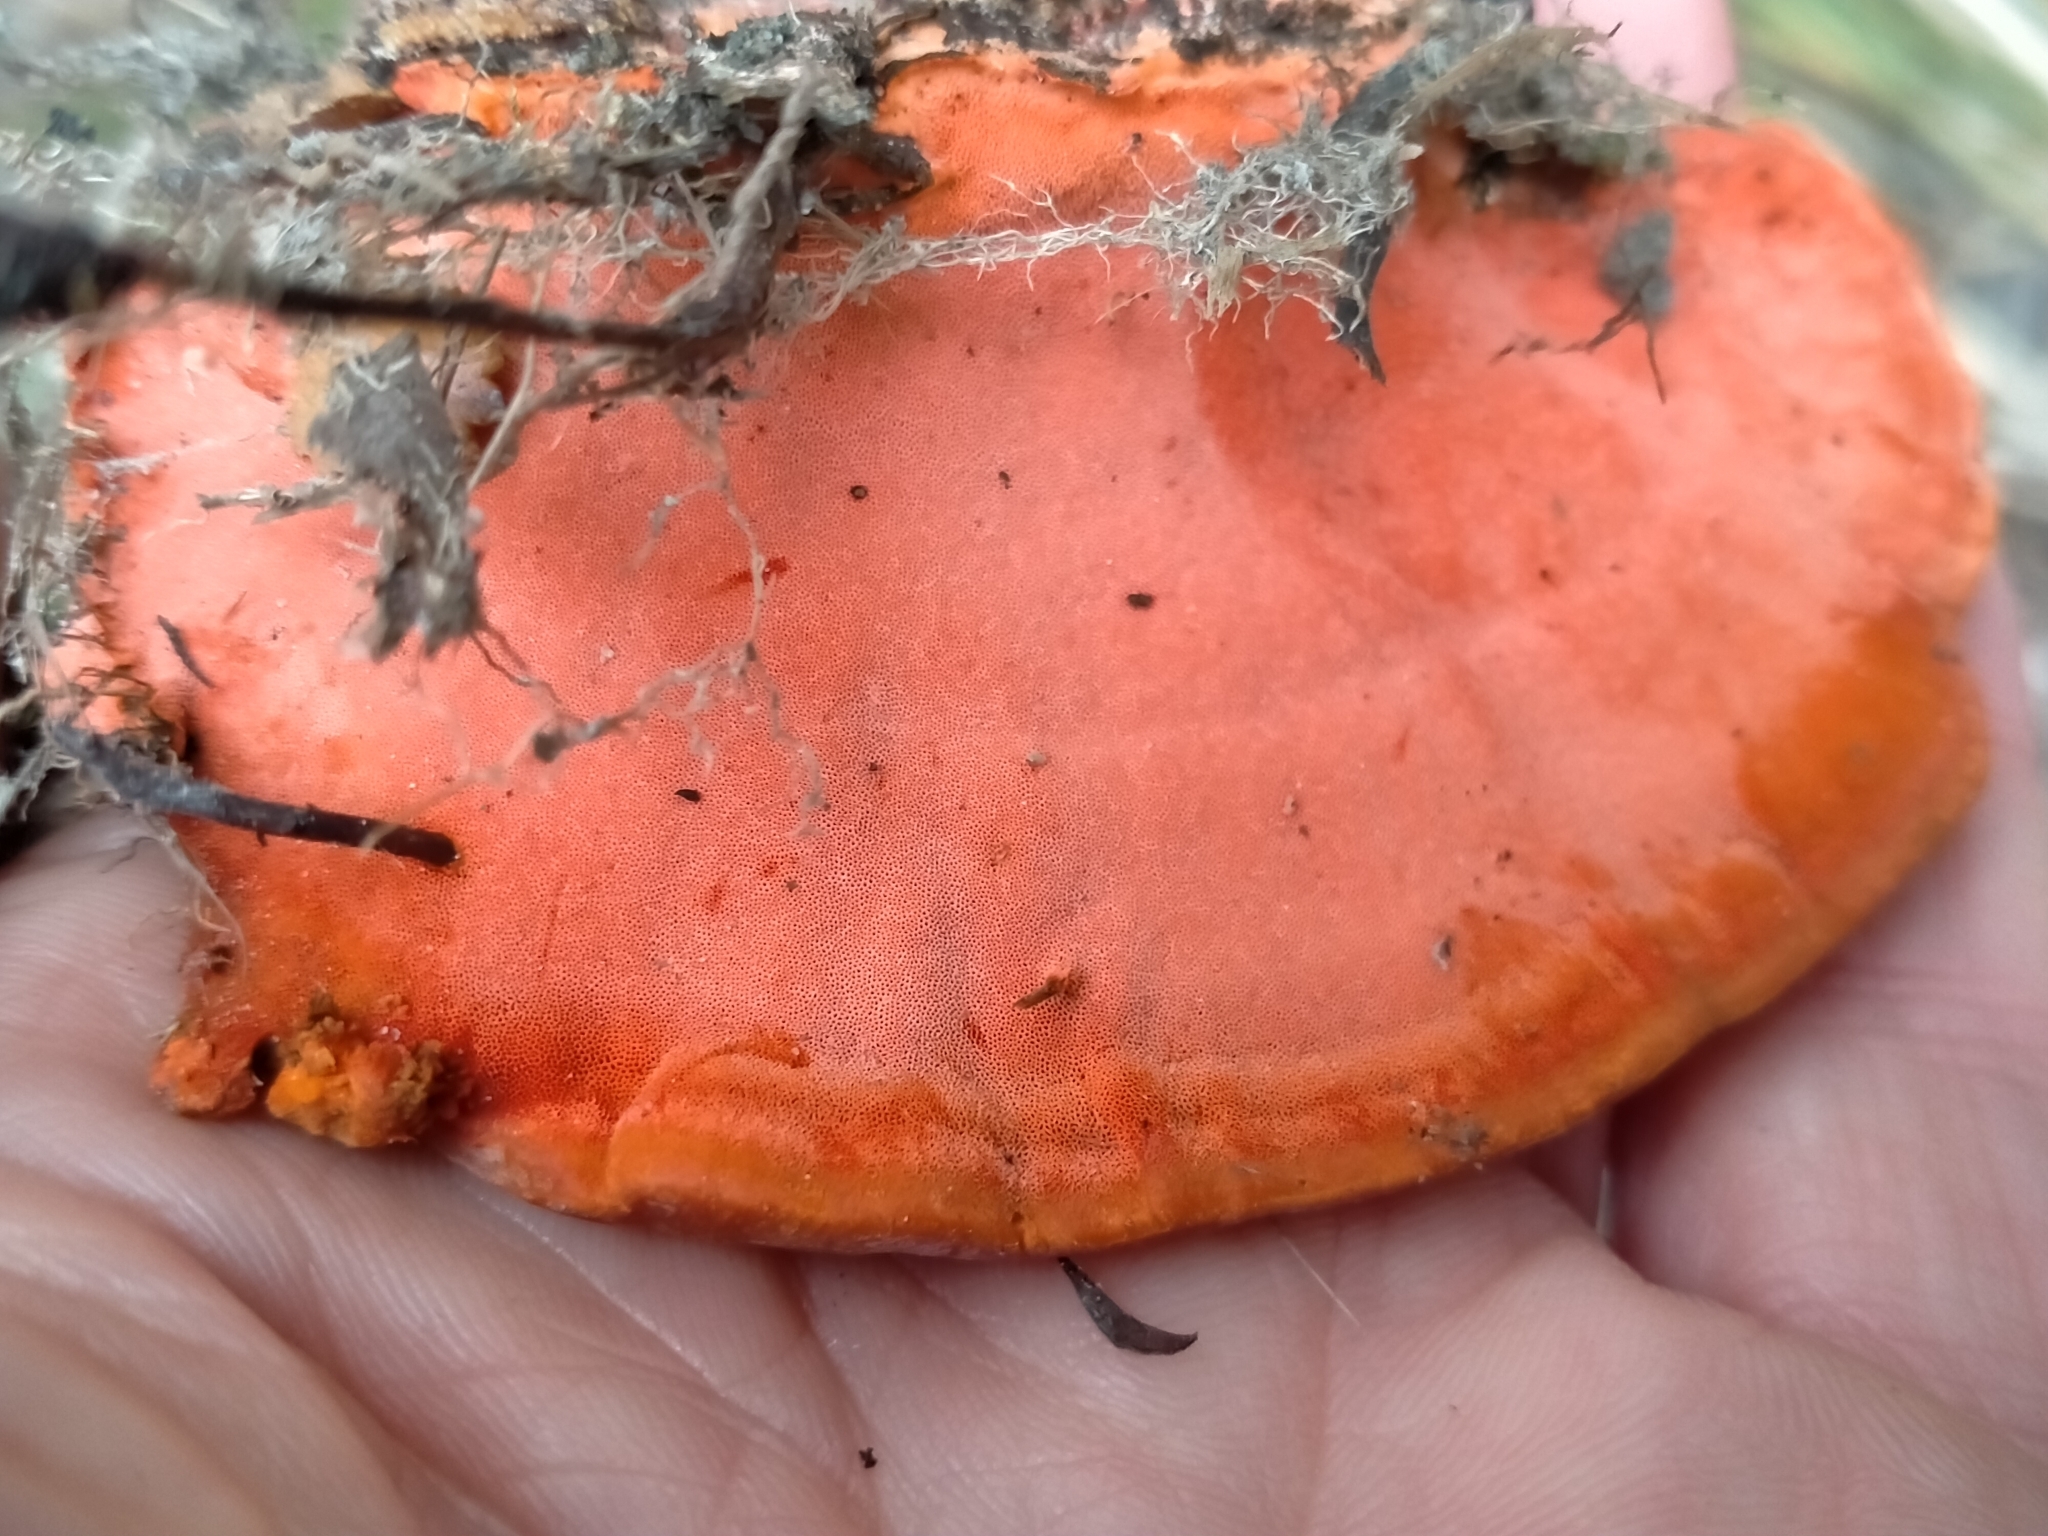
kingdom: Fungi
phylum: Basidiomycota
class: Agaricomycetes
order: Polyporales
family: Polyporaceae
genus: Trametes
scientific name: Trametes coccinea
